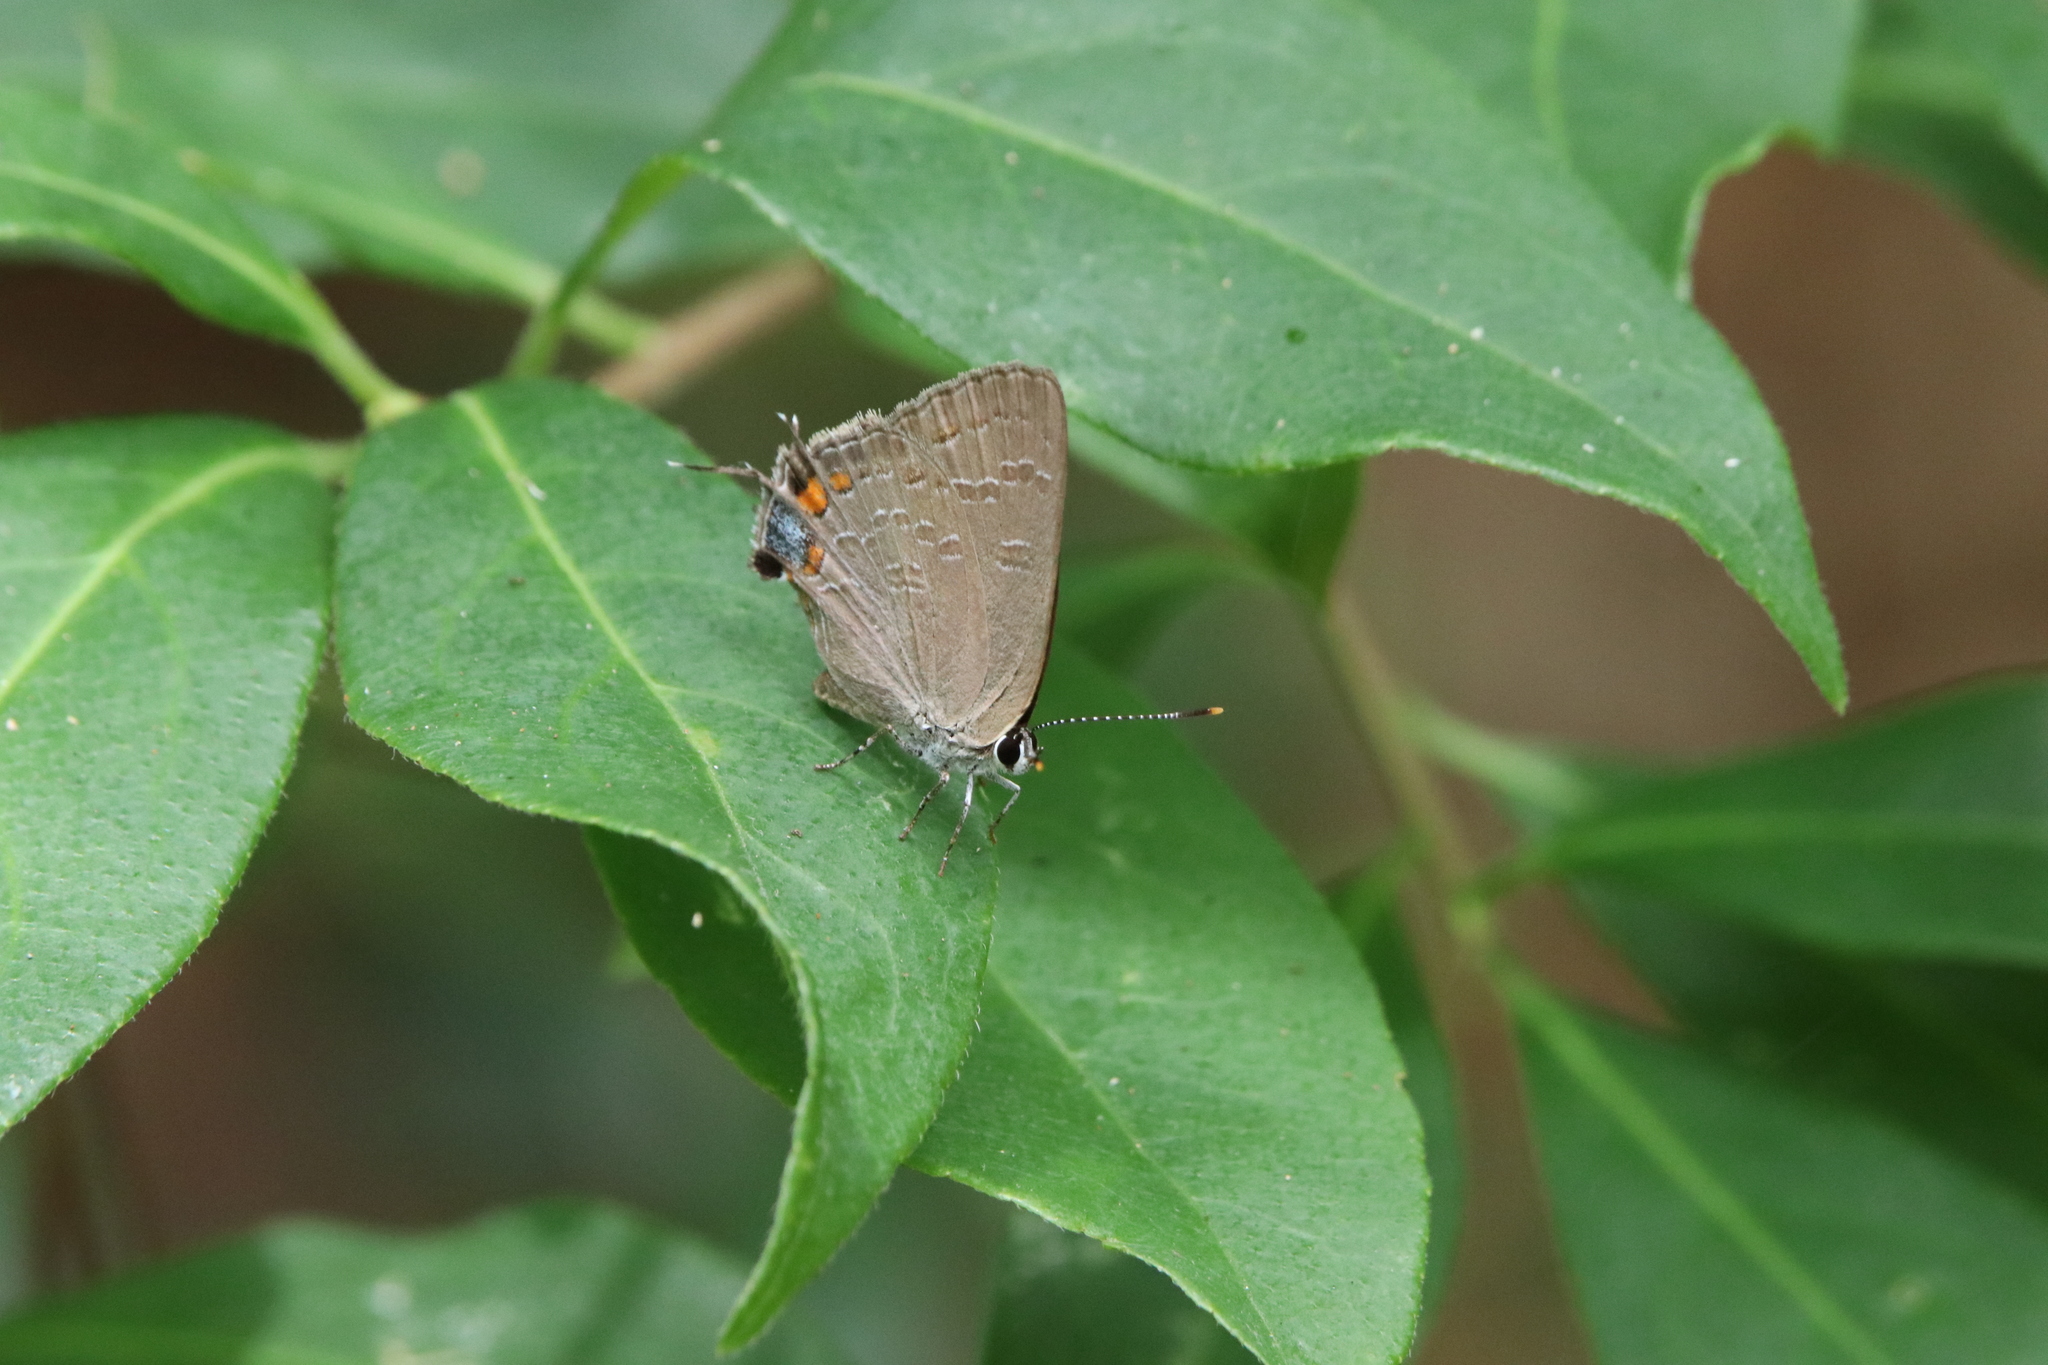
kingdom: Animalia
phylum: Arthropoda
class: Insecta
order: Lepidoptera
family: Lycaenidae
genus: Strymon
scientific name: Strymon kingi
